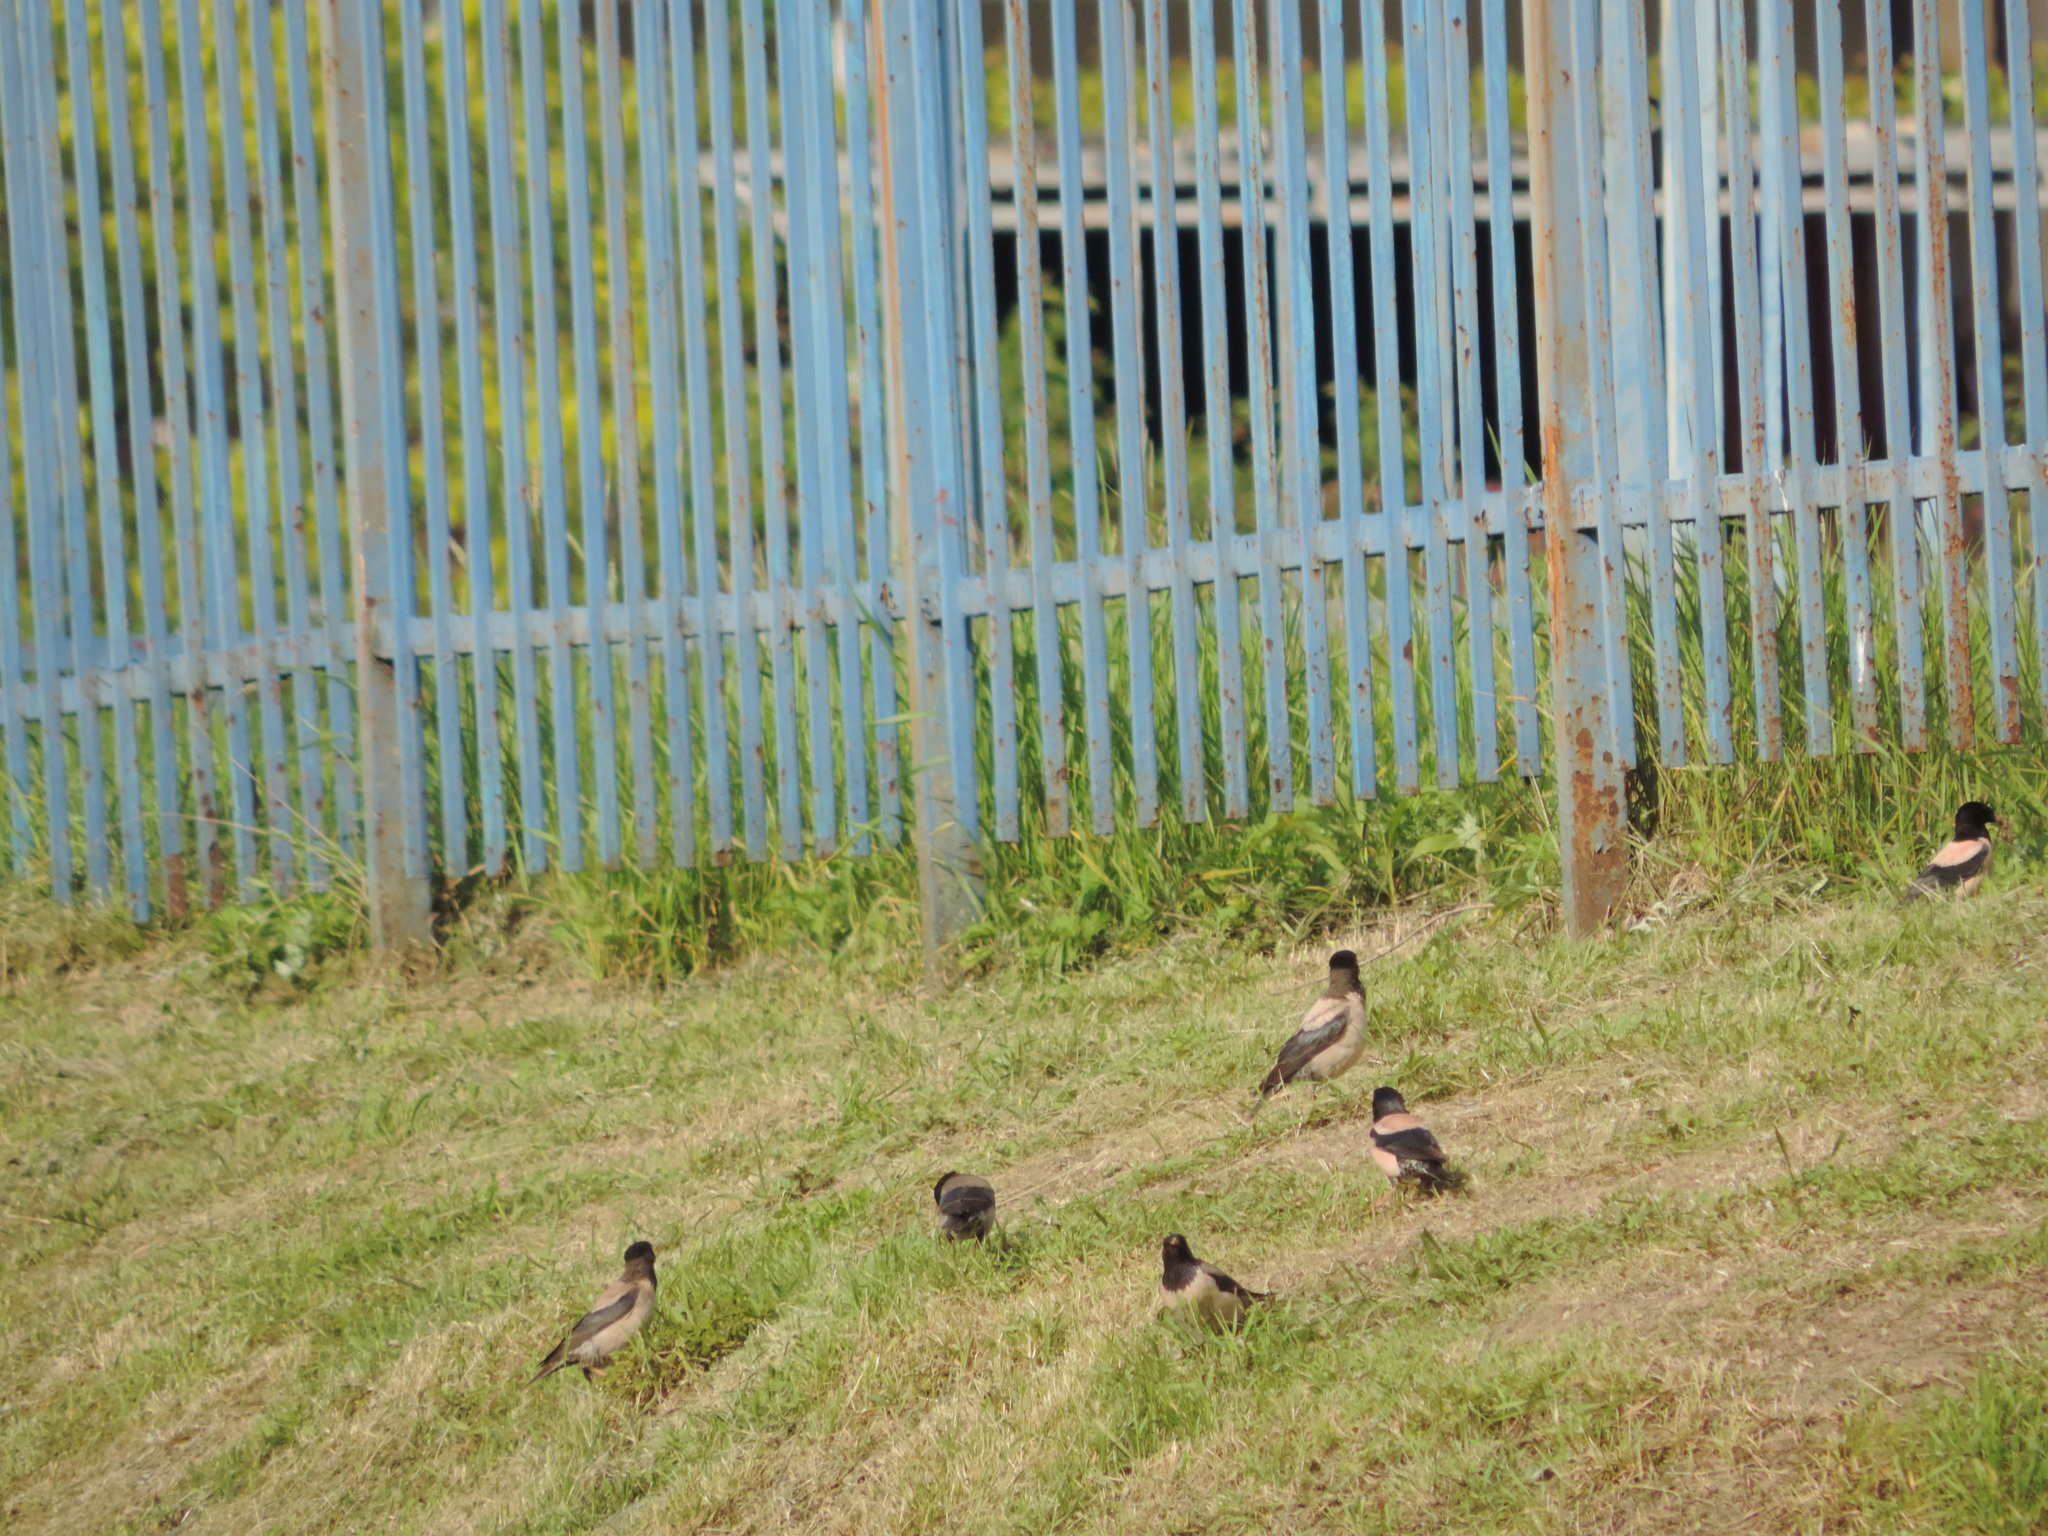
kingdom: Animalia
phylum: Chordata
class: Aves
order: Passeriformes
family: Sturnidae
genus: Pastor
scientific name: Pastor roseus
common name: Rosy starling
